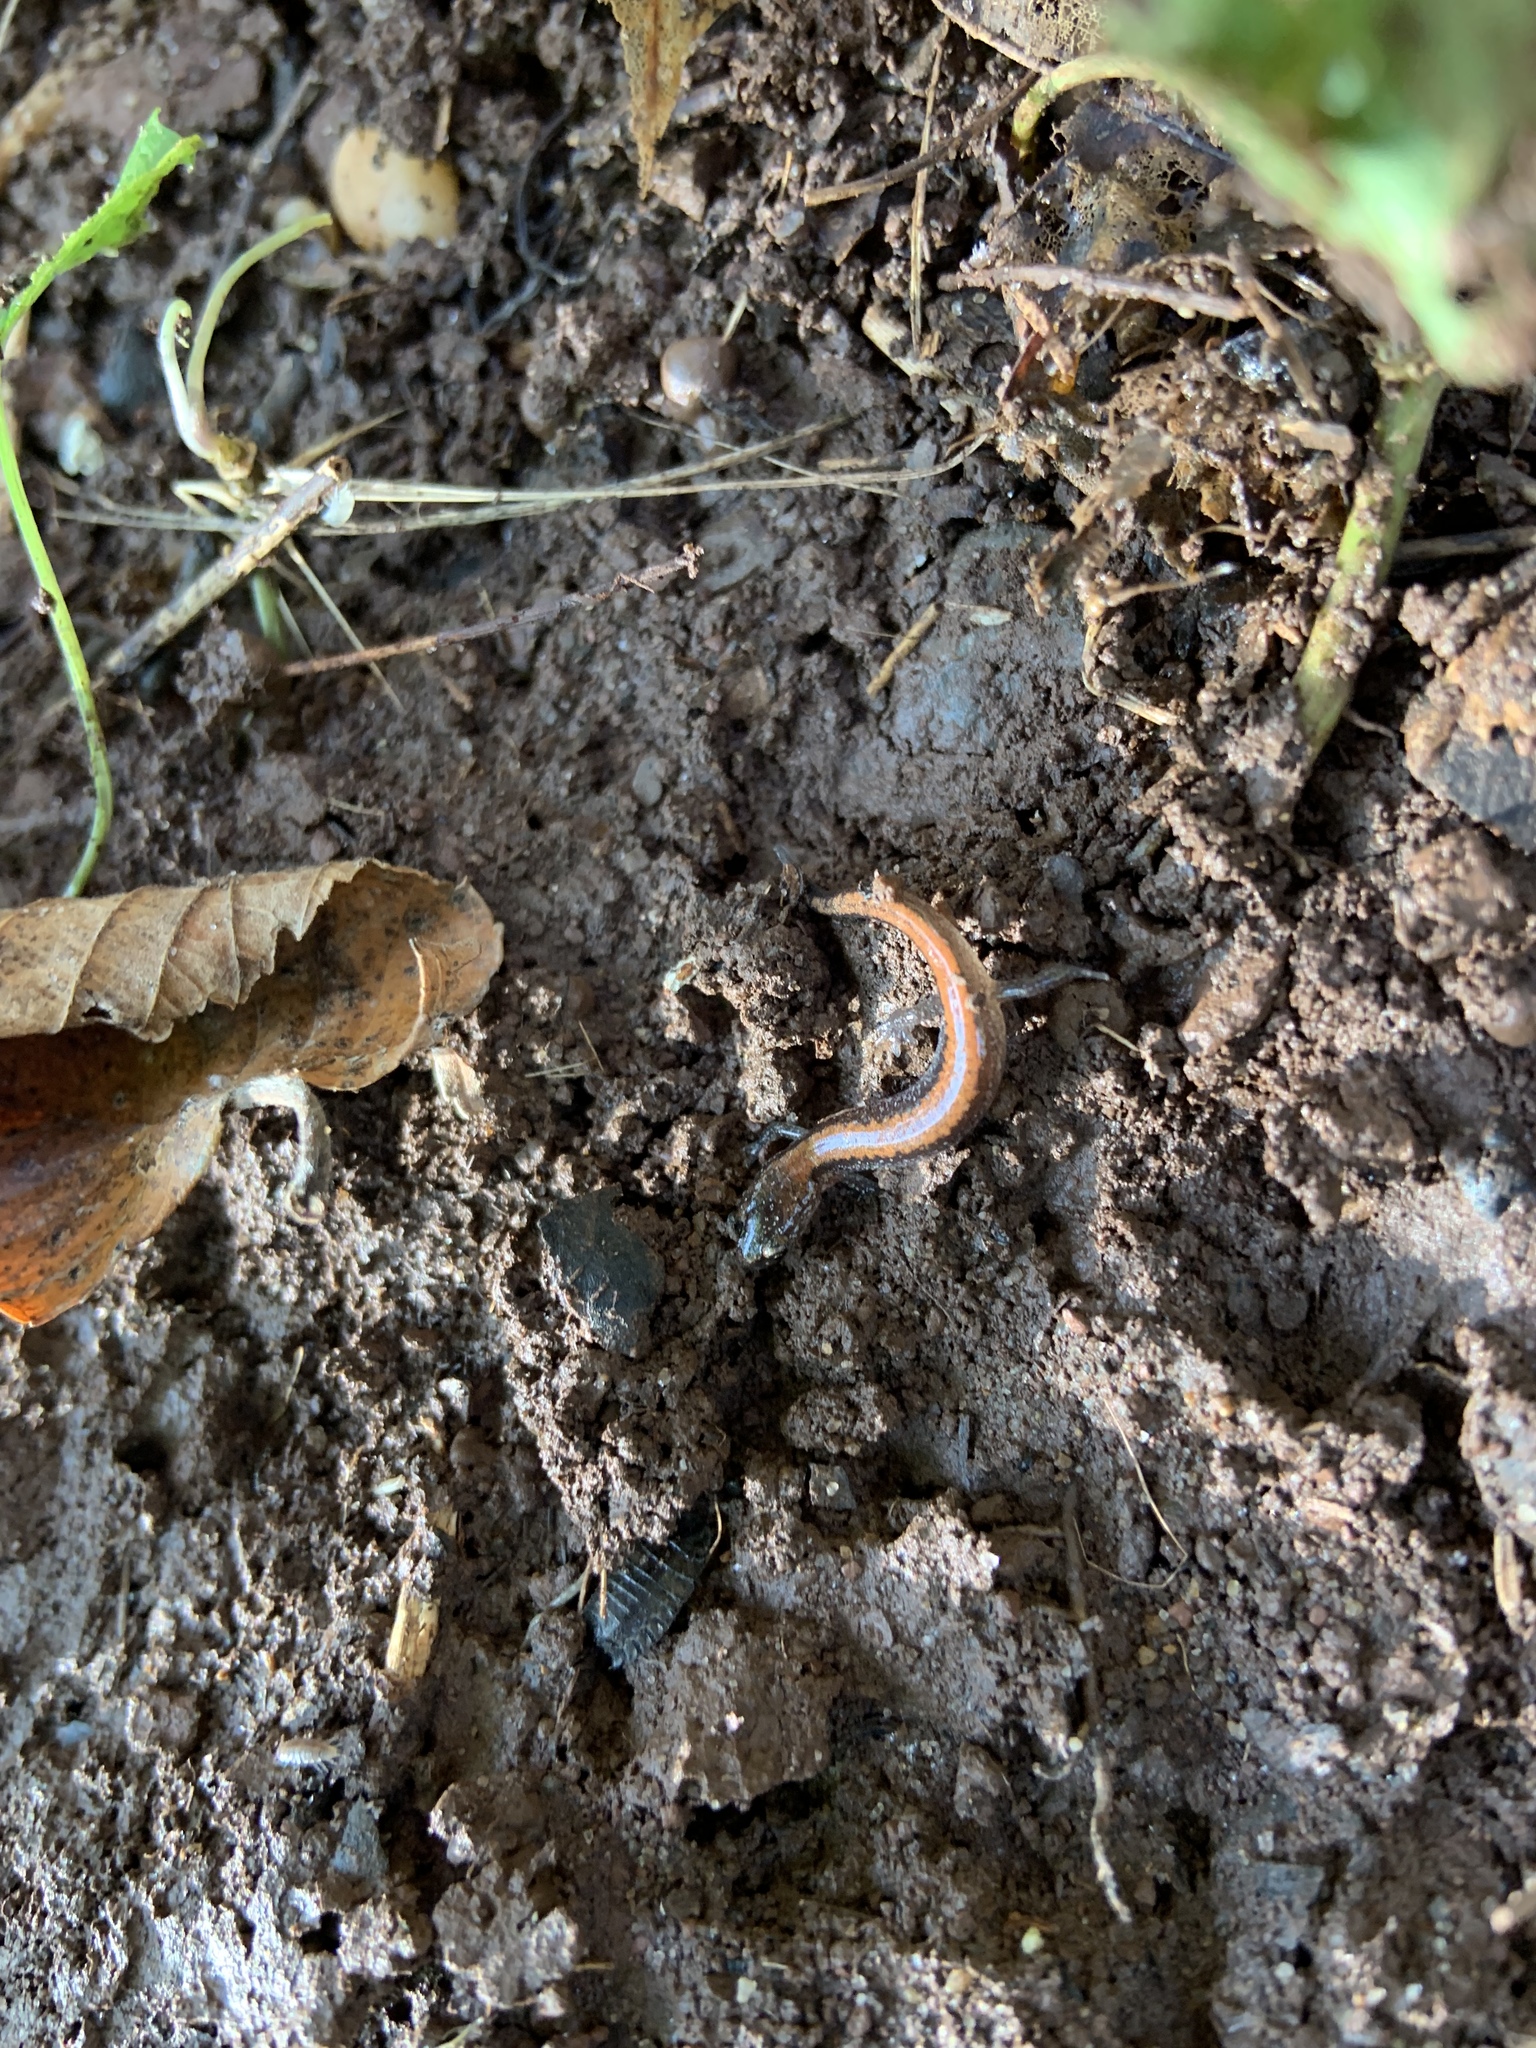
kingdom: Animalia
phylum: Chordata
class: Amphibia
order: Caudata
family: Plethodontidae
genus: Plethodon
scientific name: Plethodon cinereus
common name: Redback salamander
